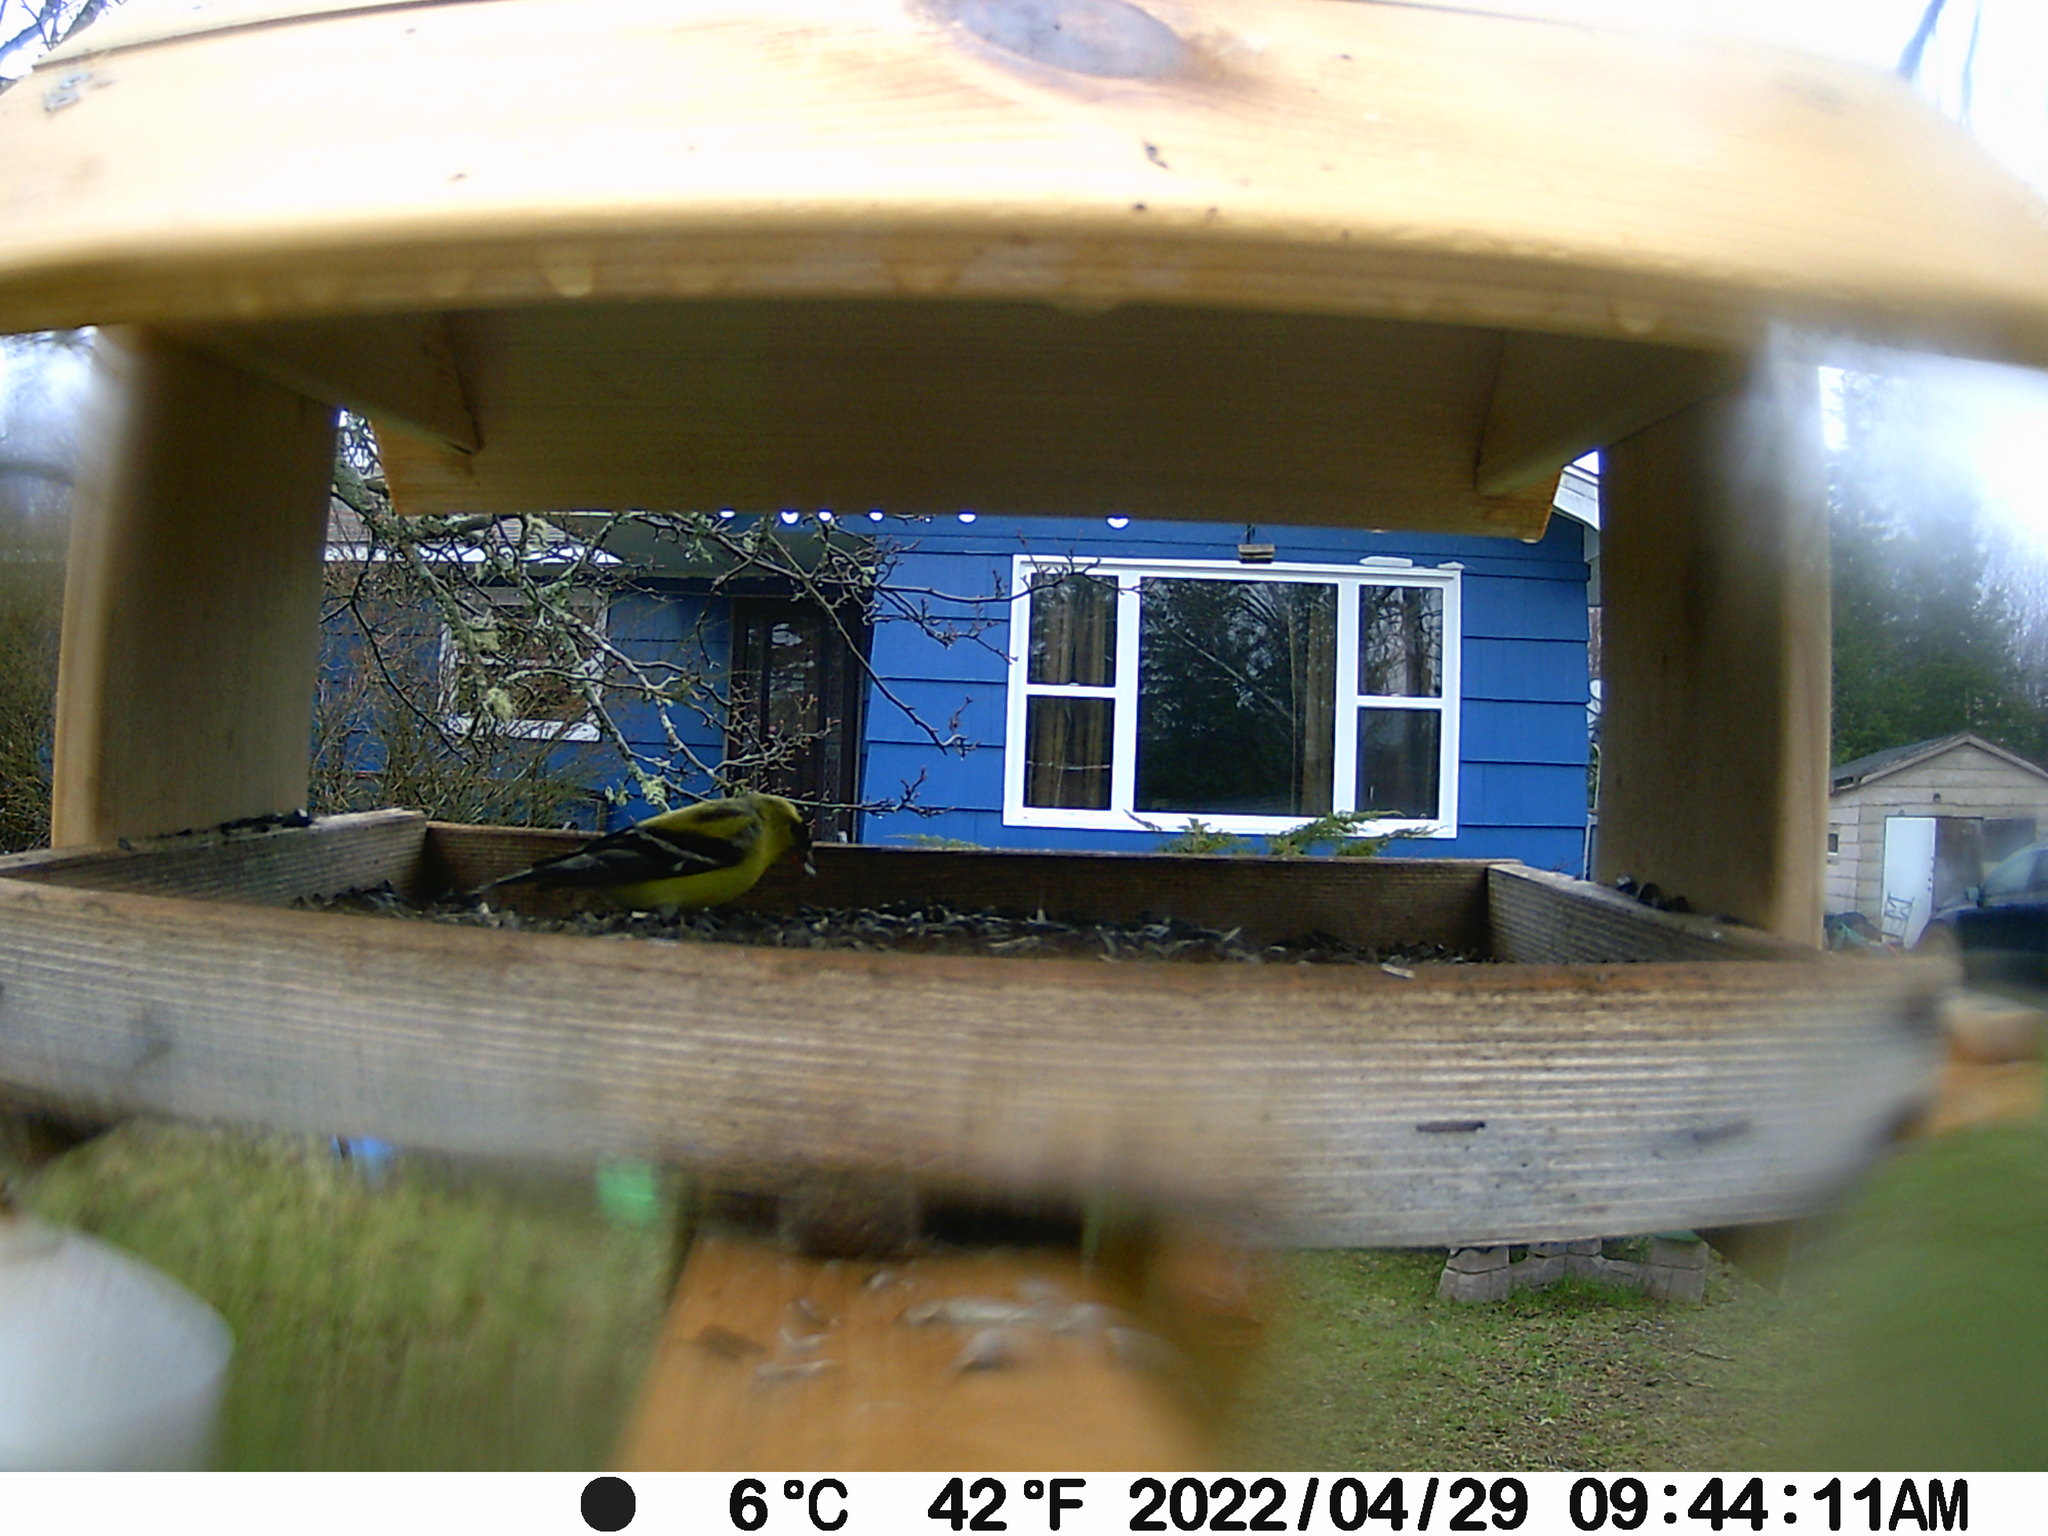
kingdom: Animalia
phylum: Chordata
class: Aves
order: Passeriformes
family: Fringillidae
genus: Spinus
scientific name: Spinus tristis
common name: American goldfinch
